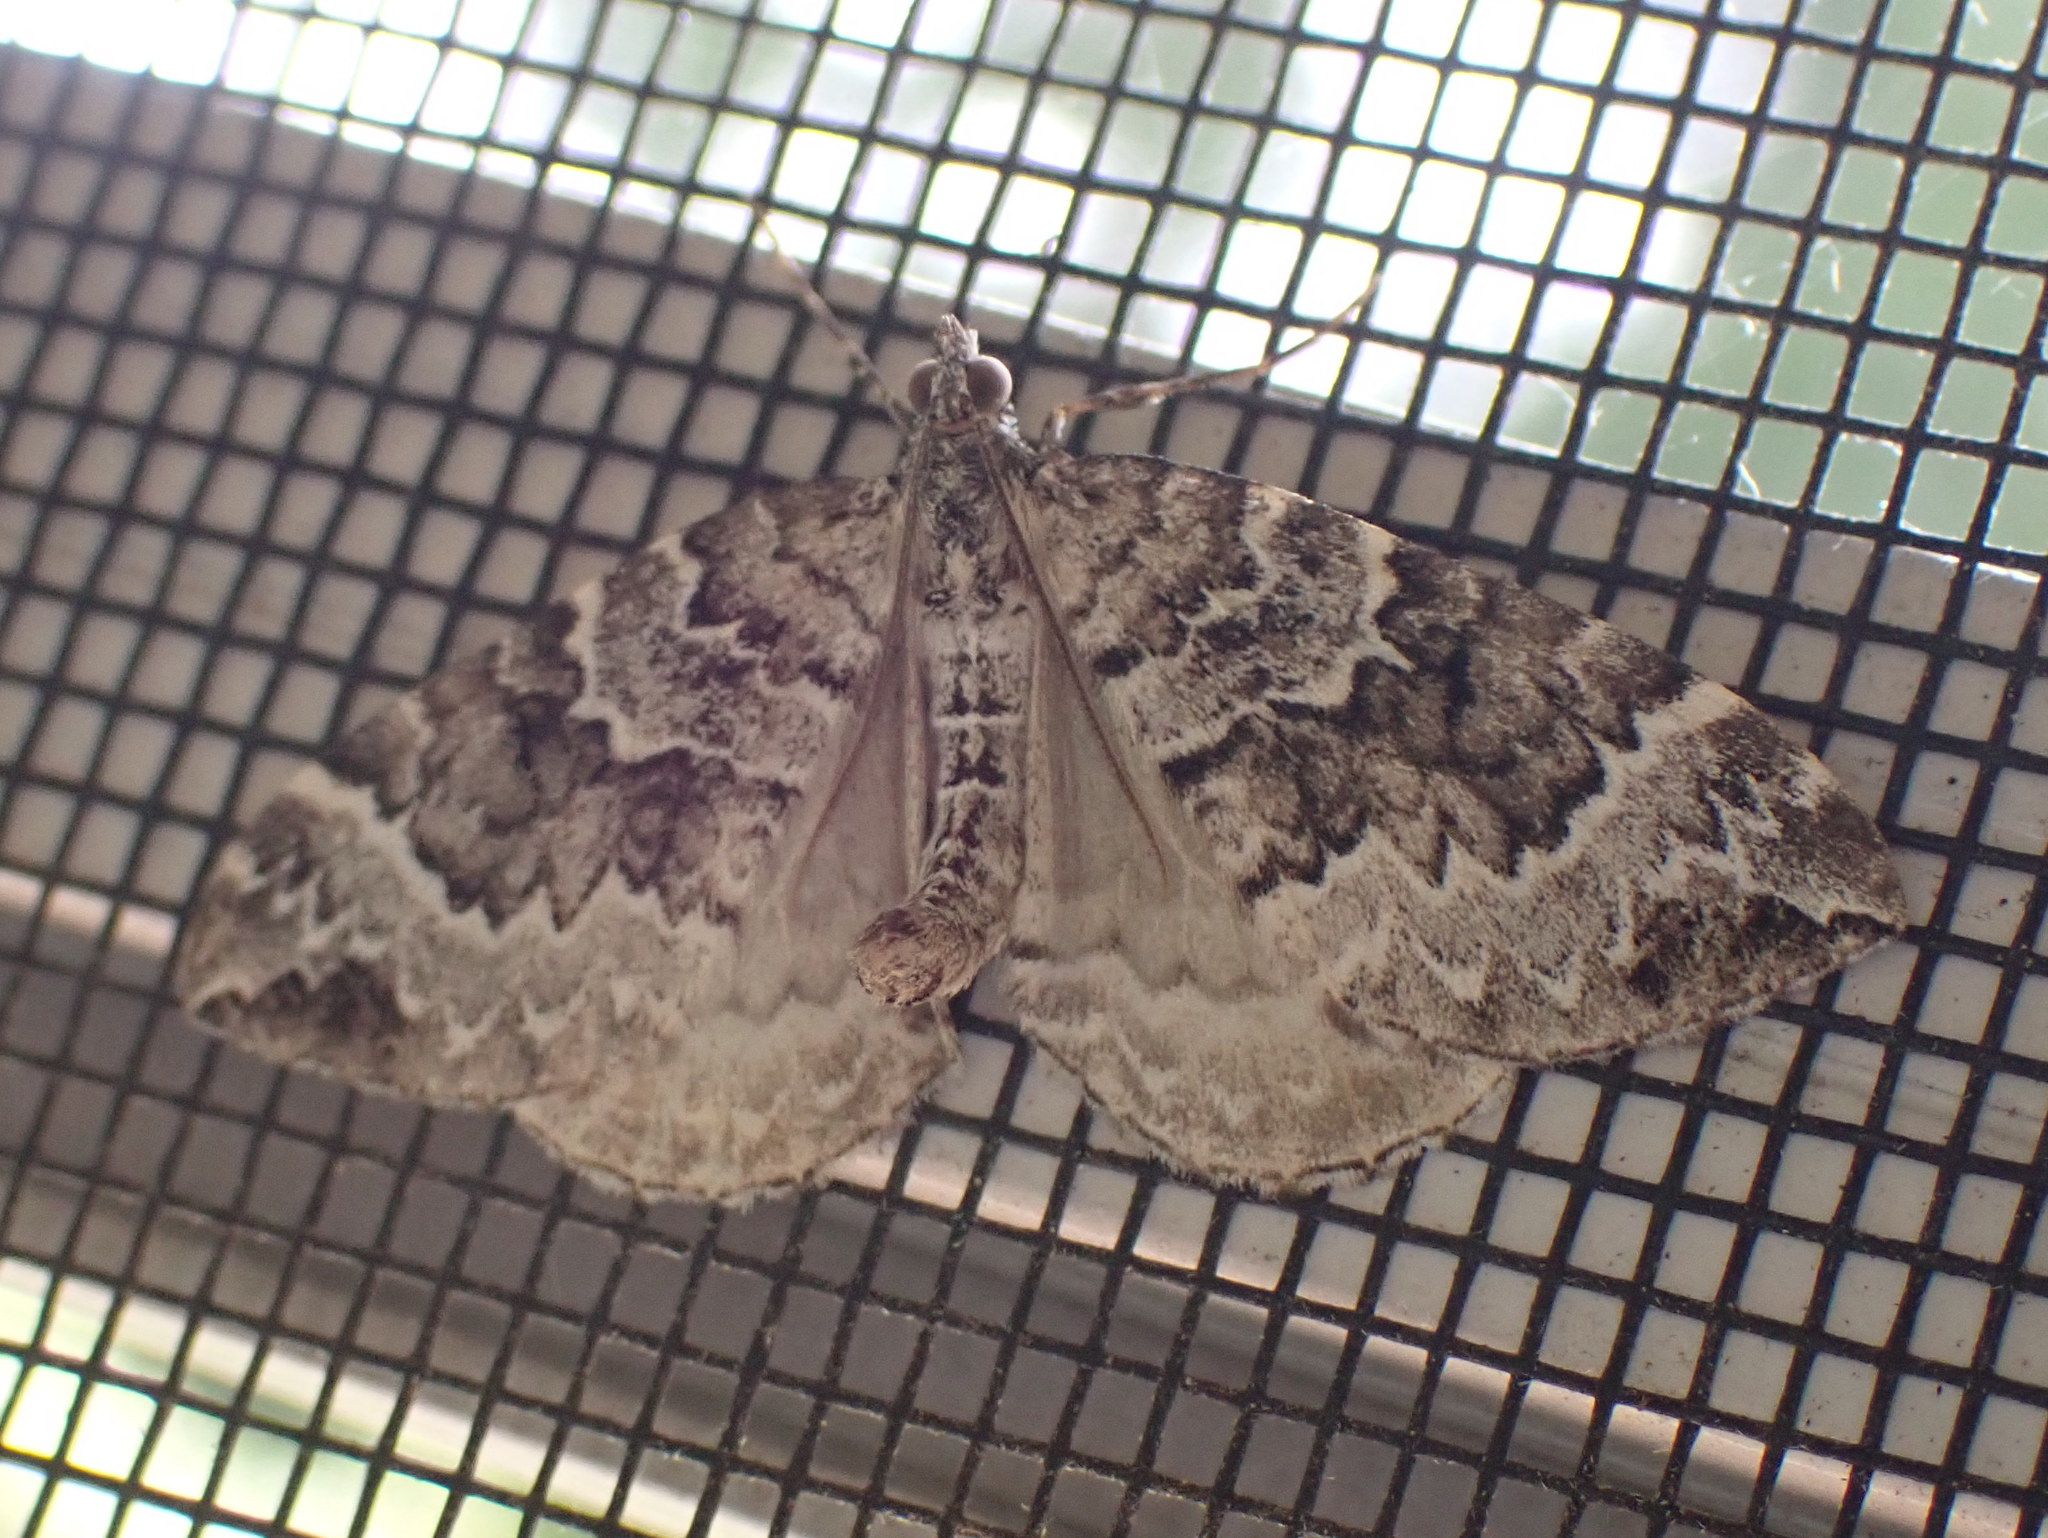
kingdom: Animalia
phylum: Arthropoda
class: Insecta
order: Lepidoptera
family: Geometridae
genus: Eulithis
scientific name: Eulithis explanata
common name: White eulithis
